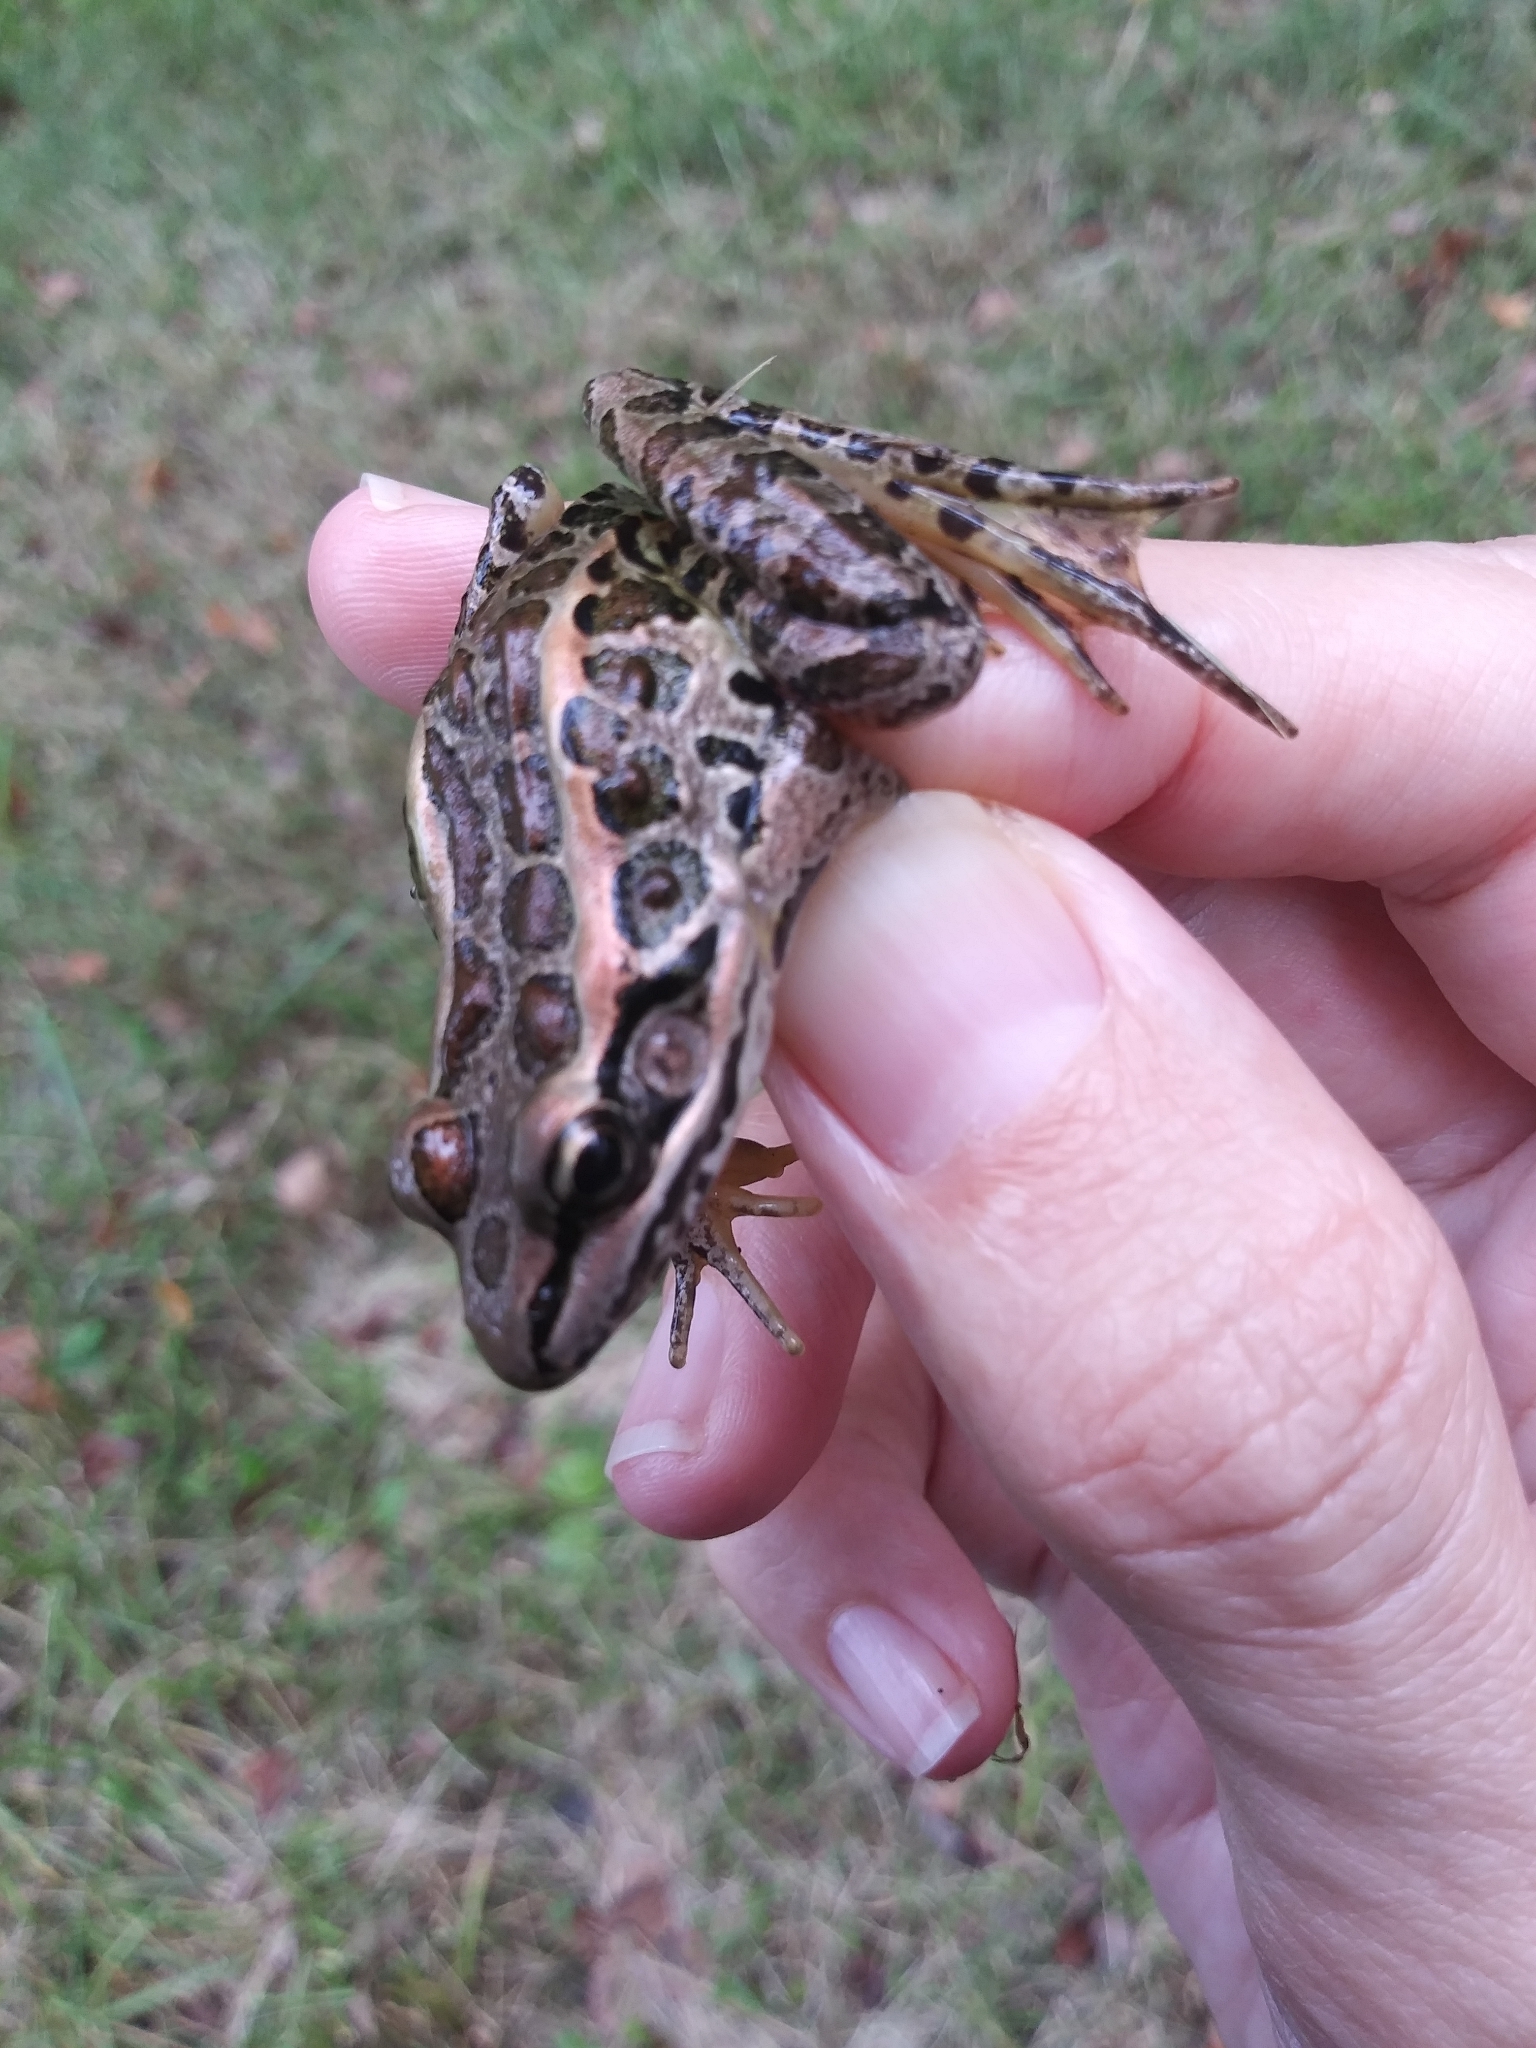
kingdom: Animalia
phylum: Chordata
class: Amphibia
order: Anura
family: Ranidae
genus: Lithobates
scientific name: Lithobates palustris
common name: Pickerel frog
